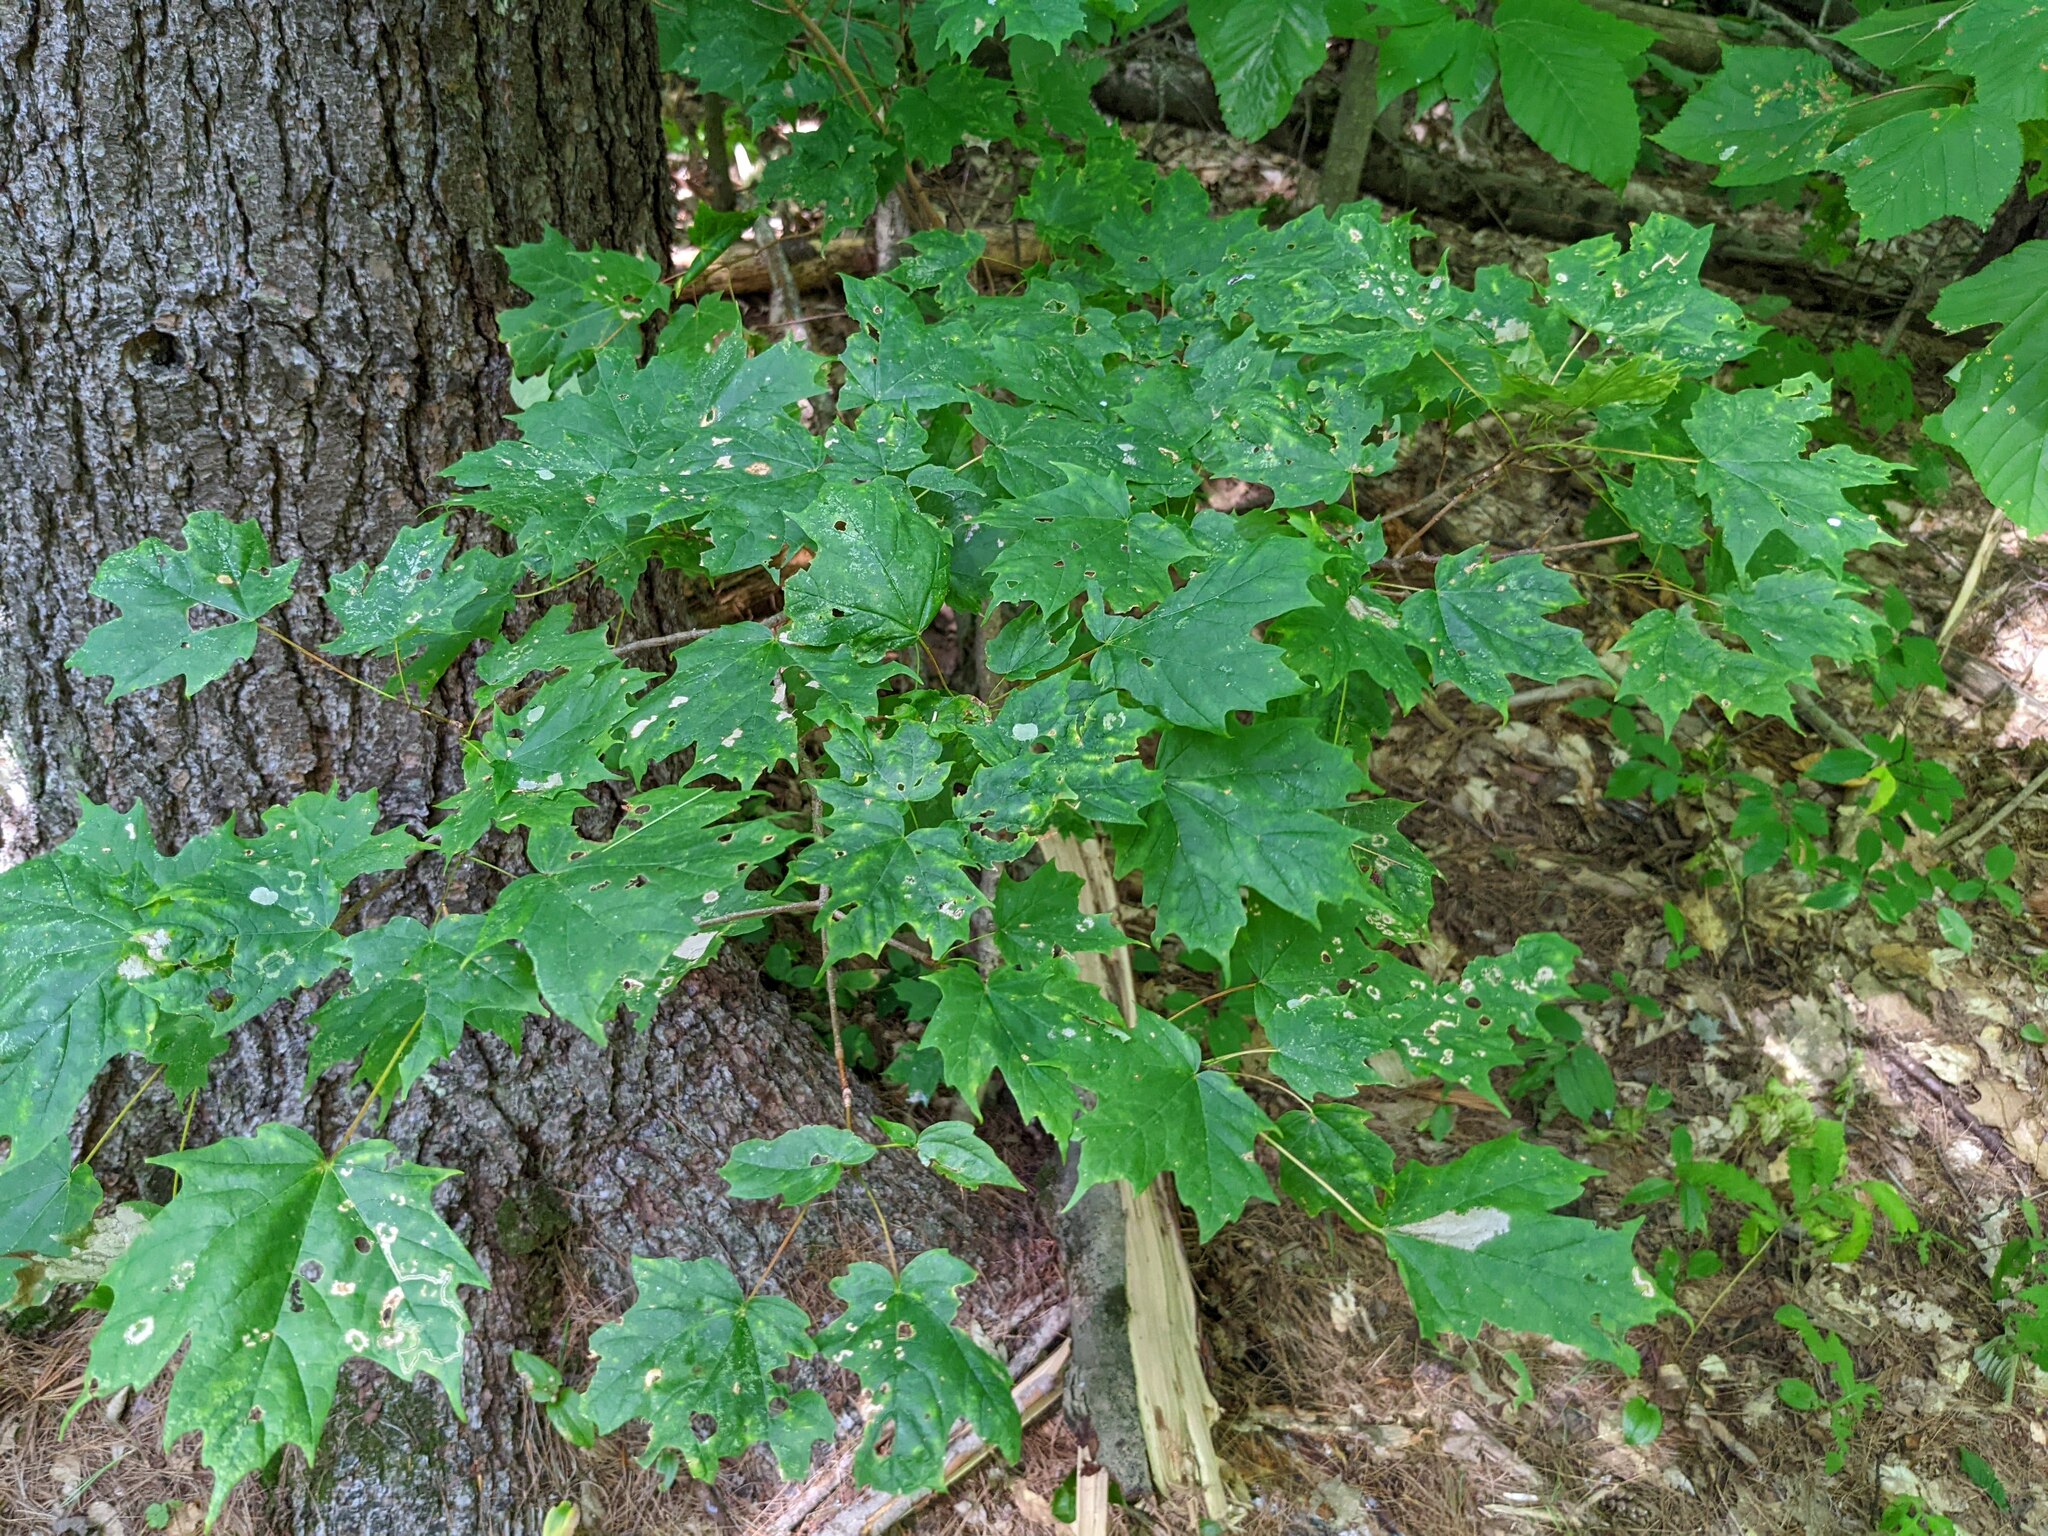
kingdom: Plantae
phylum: Tracheophyta
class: Magnoliopsida
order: Sapindales
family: Sapindaceae
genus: Acer
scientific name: Acer saccharum
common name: Sugar maple
